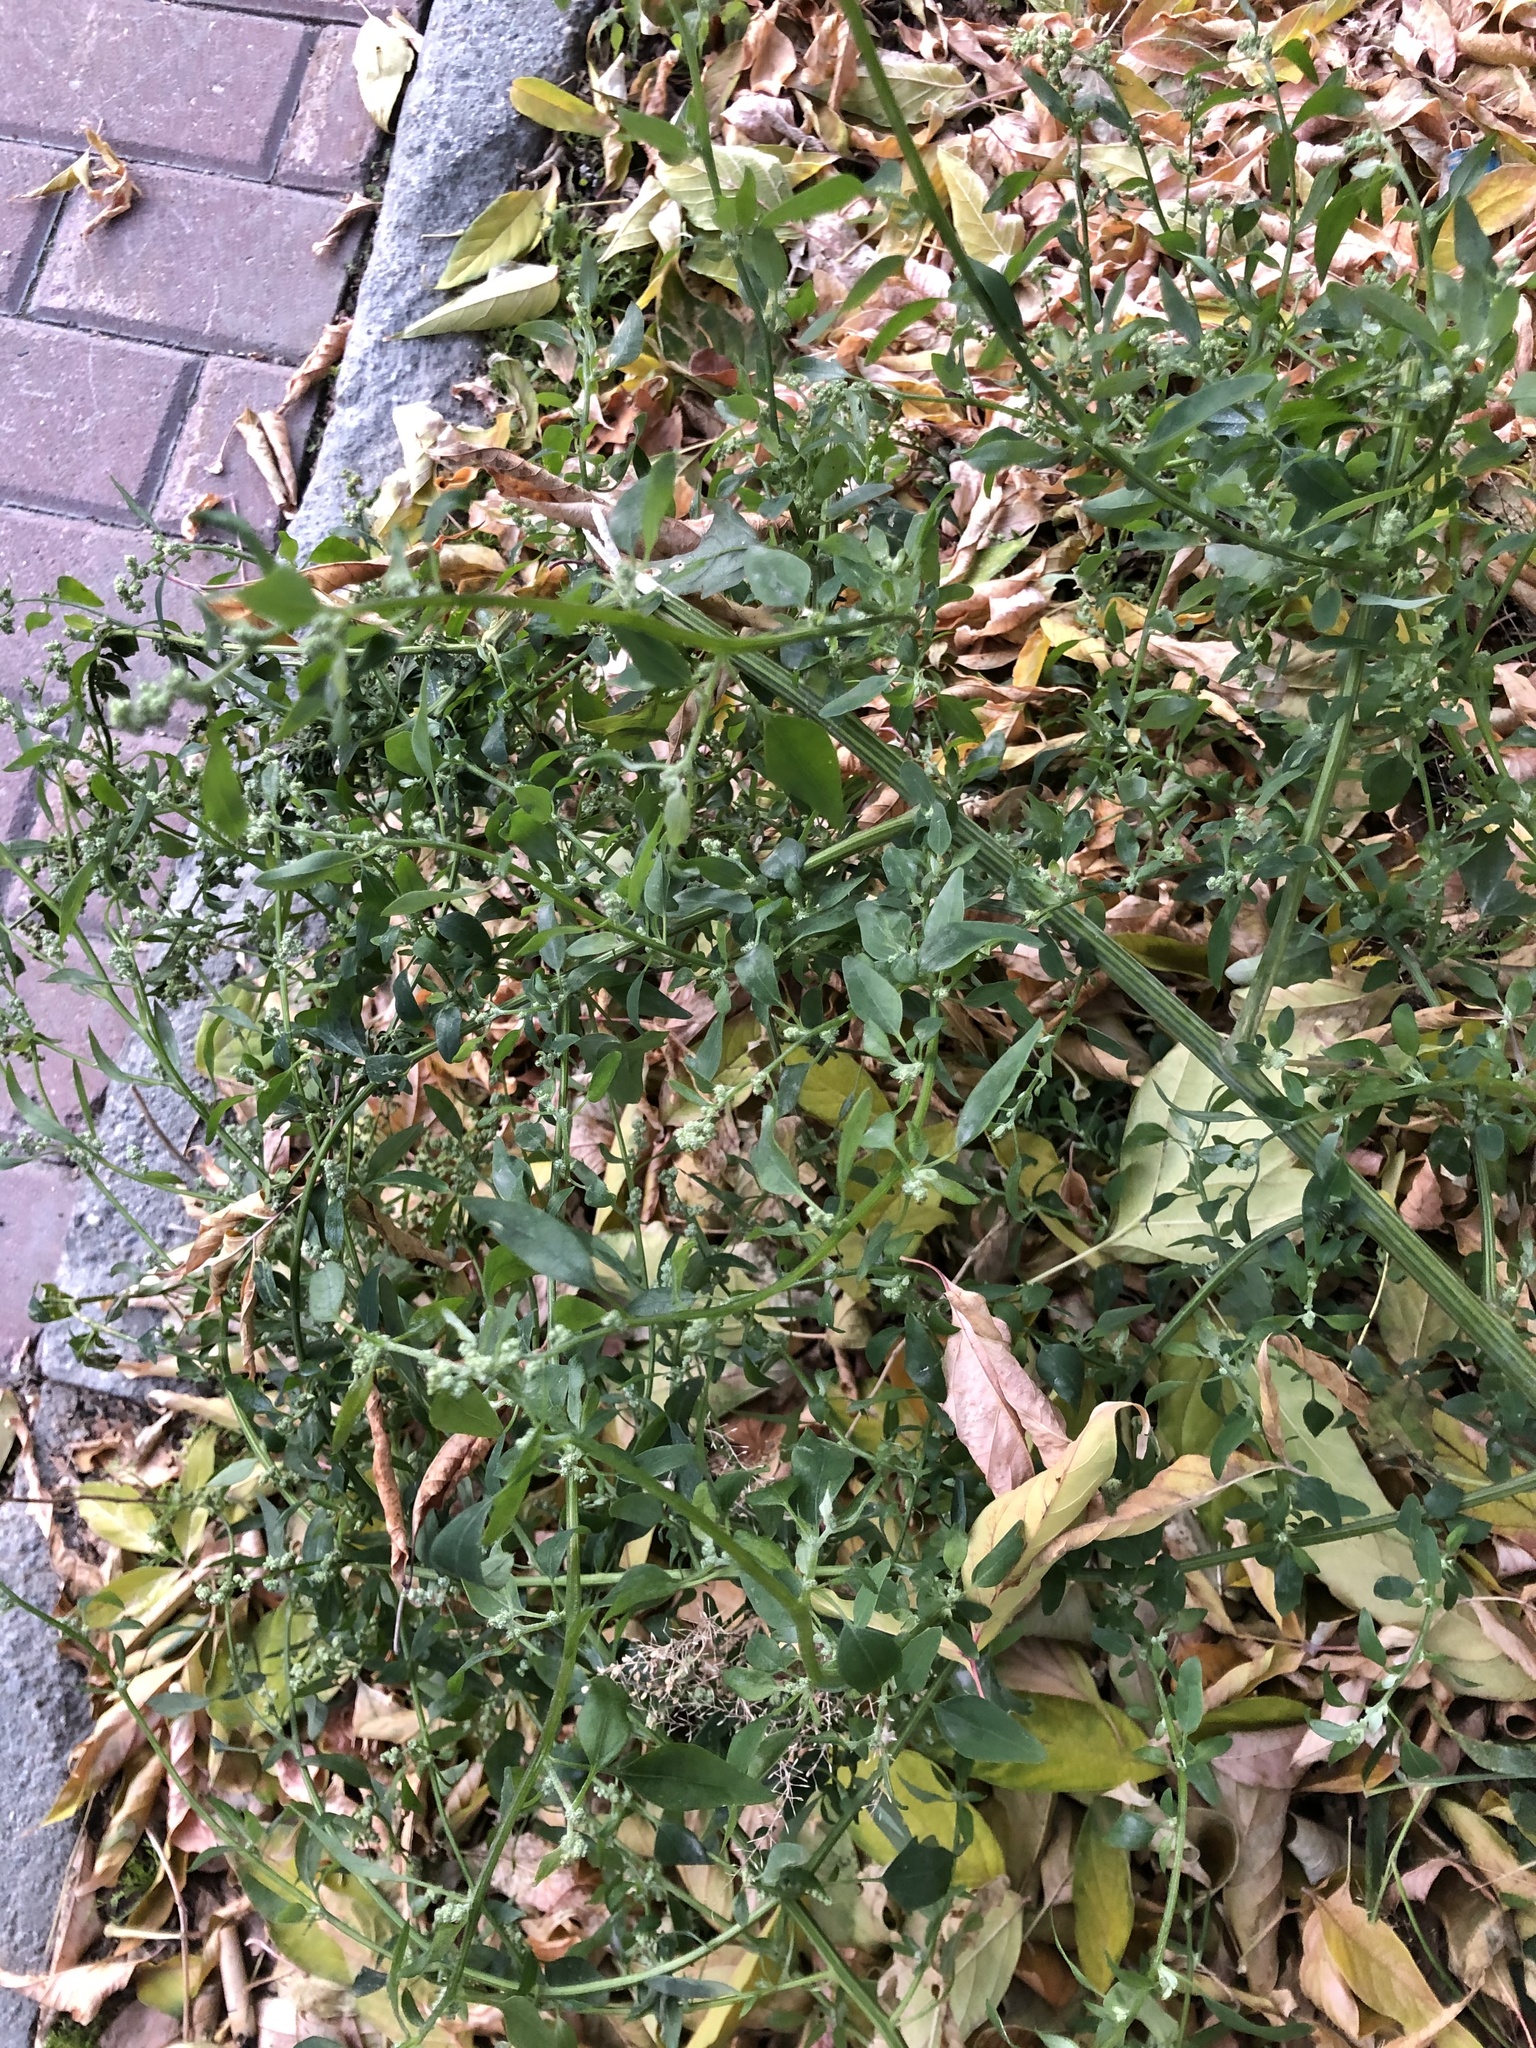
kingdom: Plantae
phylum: Tracheophyta
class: Magnoliopsida
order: Caryophyllales
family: Amaranthaceae
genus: Chenopodium
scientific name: Chenopodium album
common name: Fat-hen
